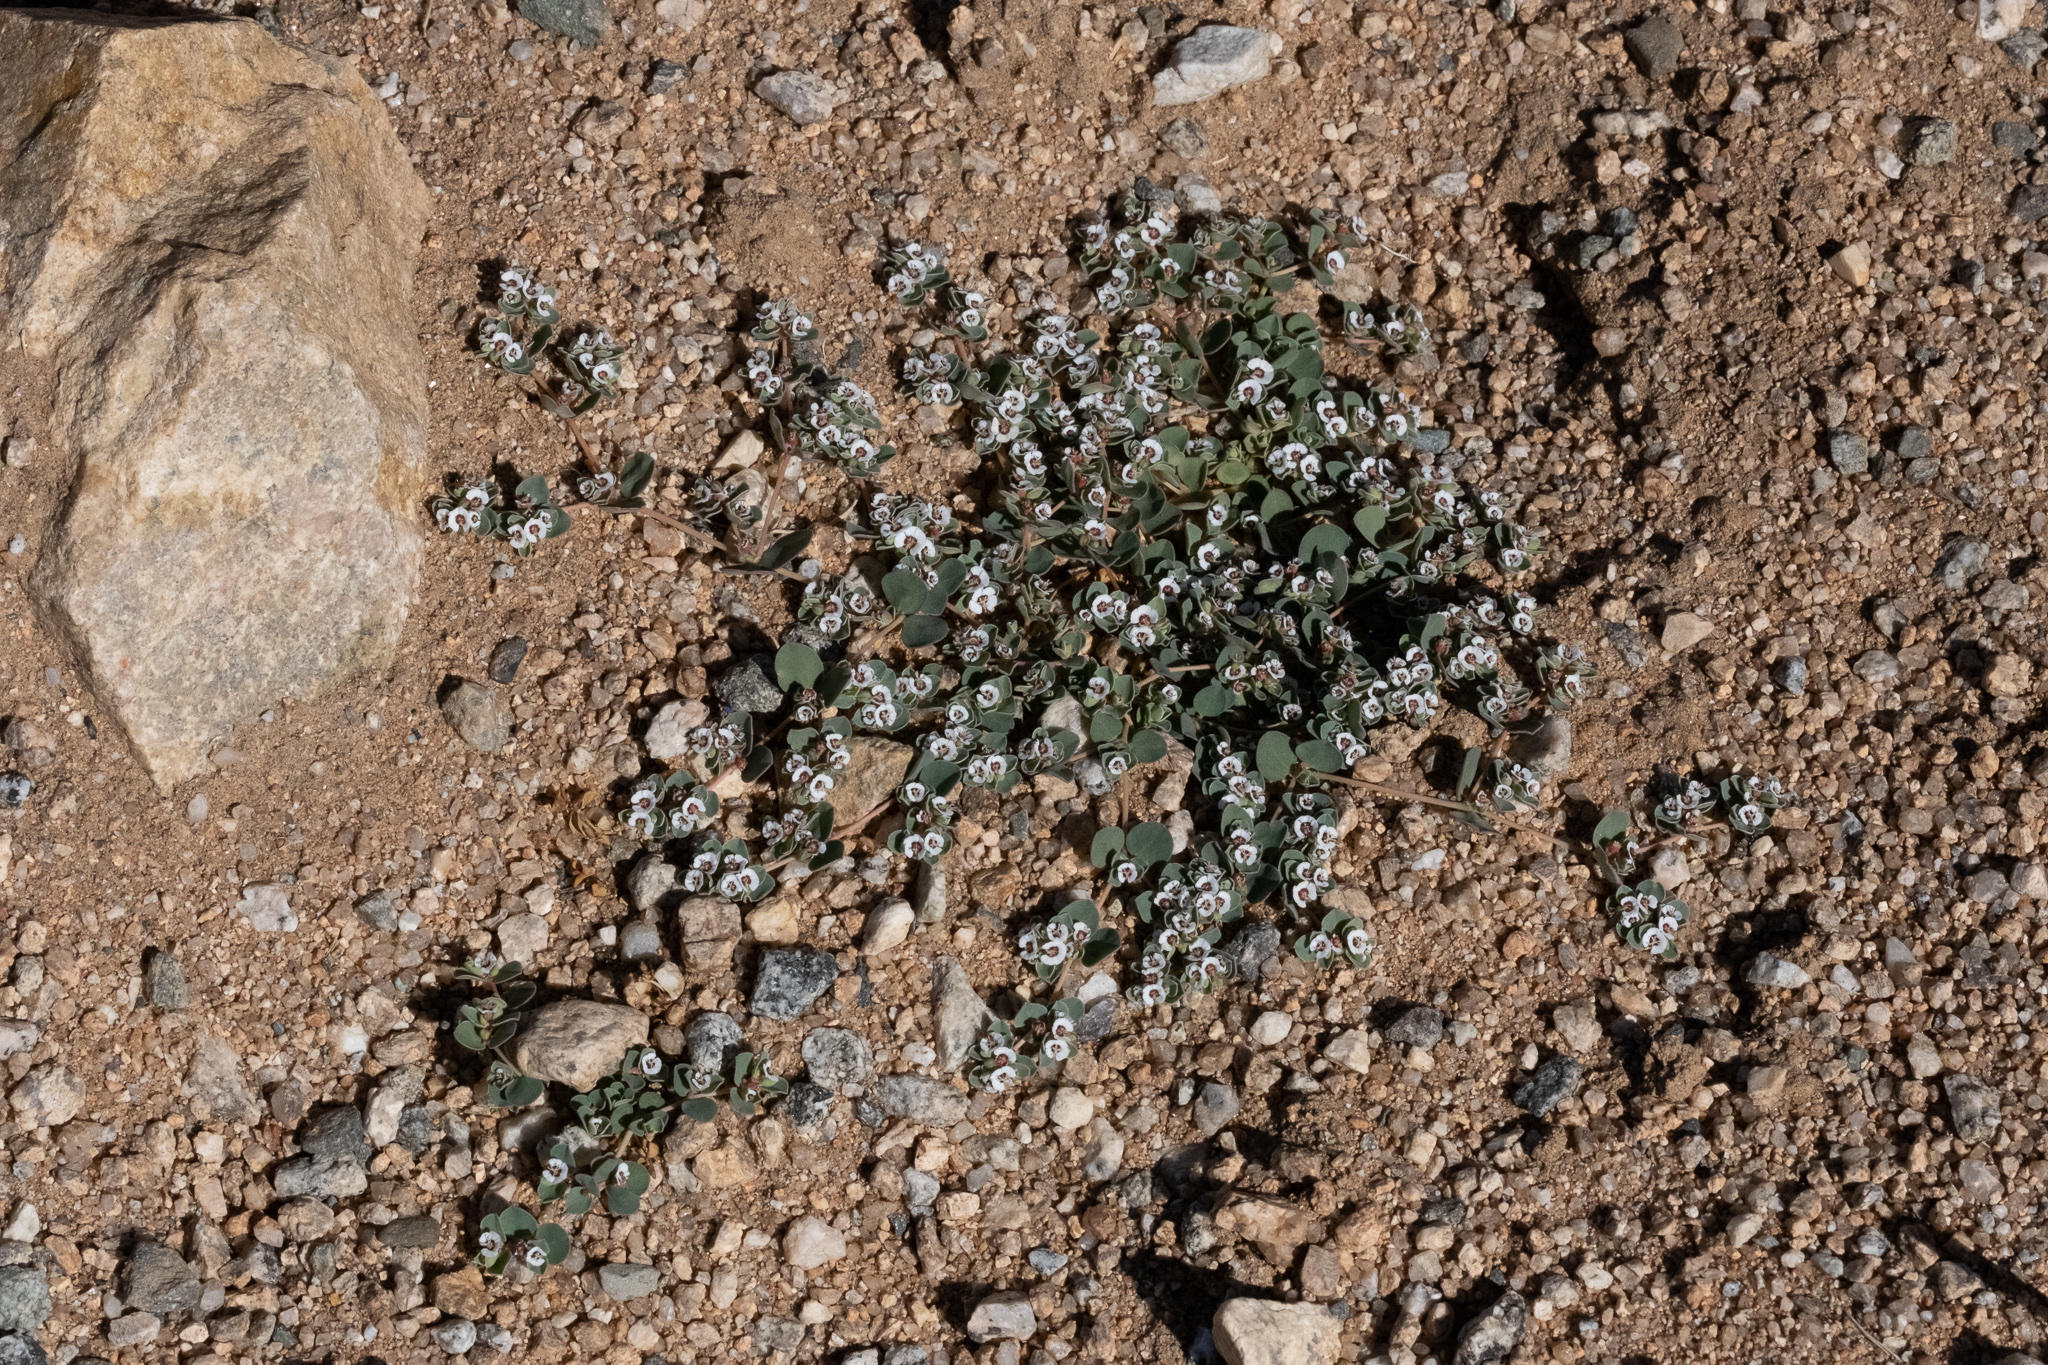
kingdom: Plantae
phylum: Tracheophyta
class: Magnoliopsida
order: Malpighiales
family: Euphorbiaceae
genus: Euphorbia
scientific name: Euphorbia albomarginata
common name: Whitemargin sandmat
